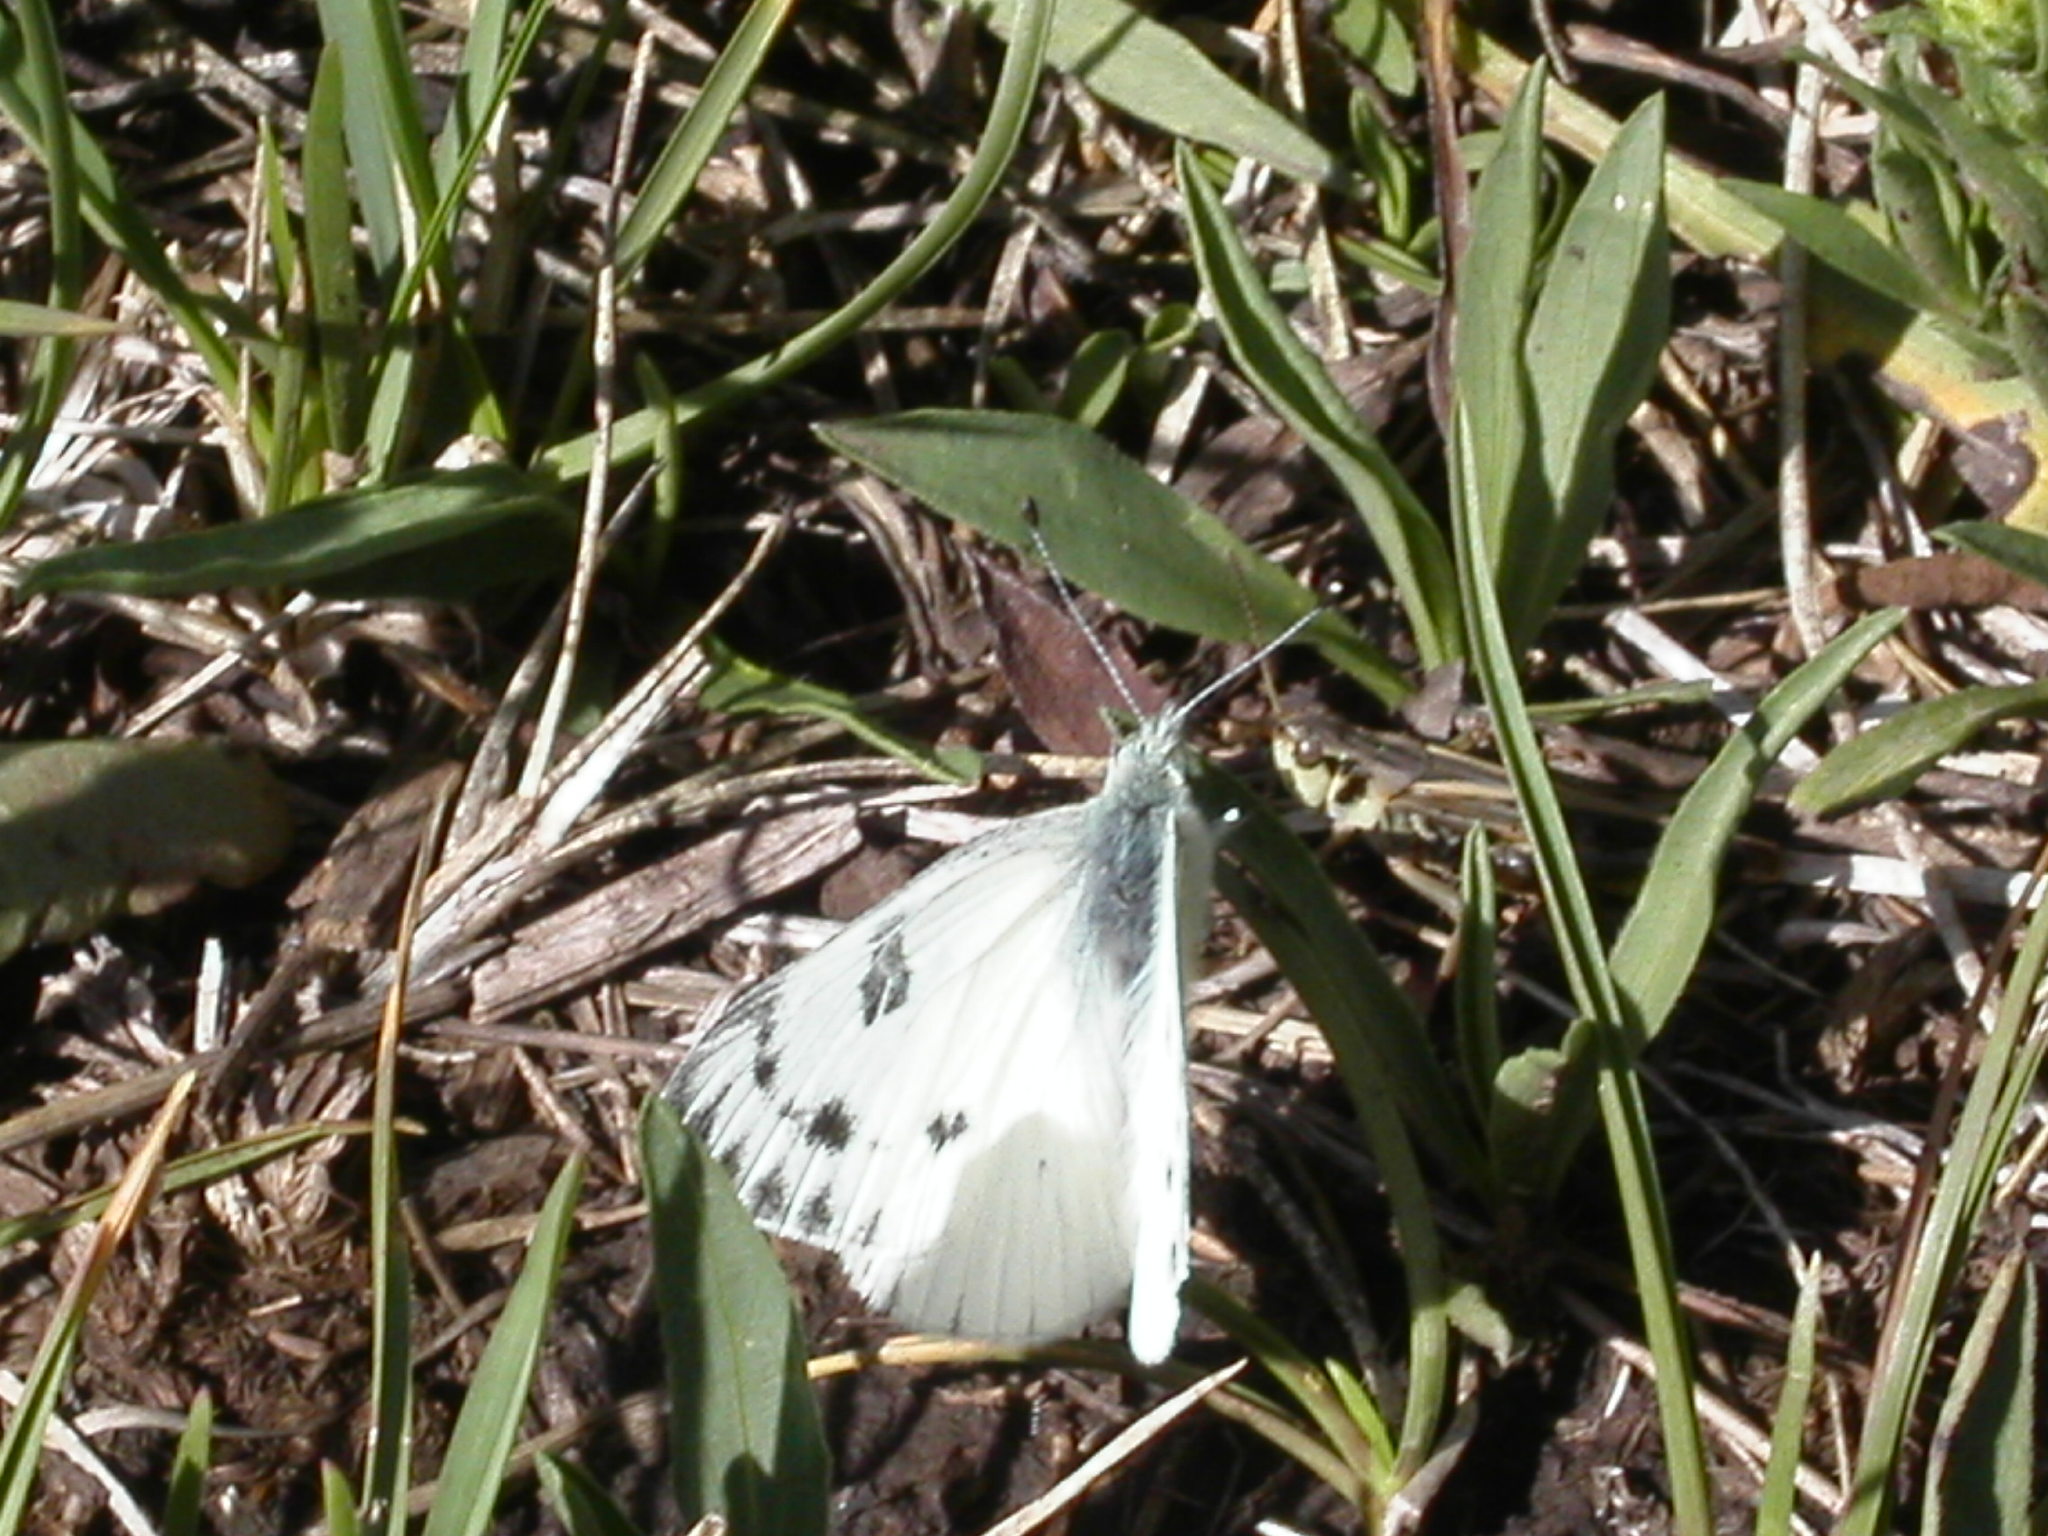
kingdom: Animalia
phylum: Arthropoda
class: Insecta
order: Lepidoptera
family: Pieridae
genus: Pontia
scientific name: Pontia protodice
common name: Checkered white
